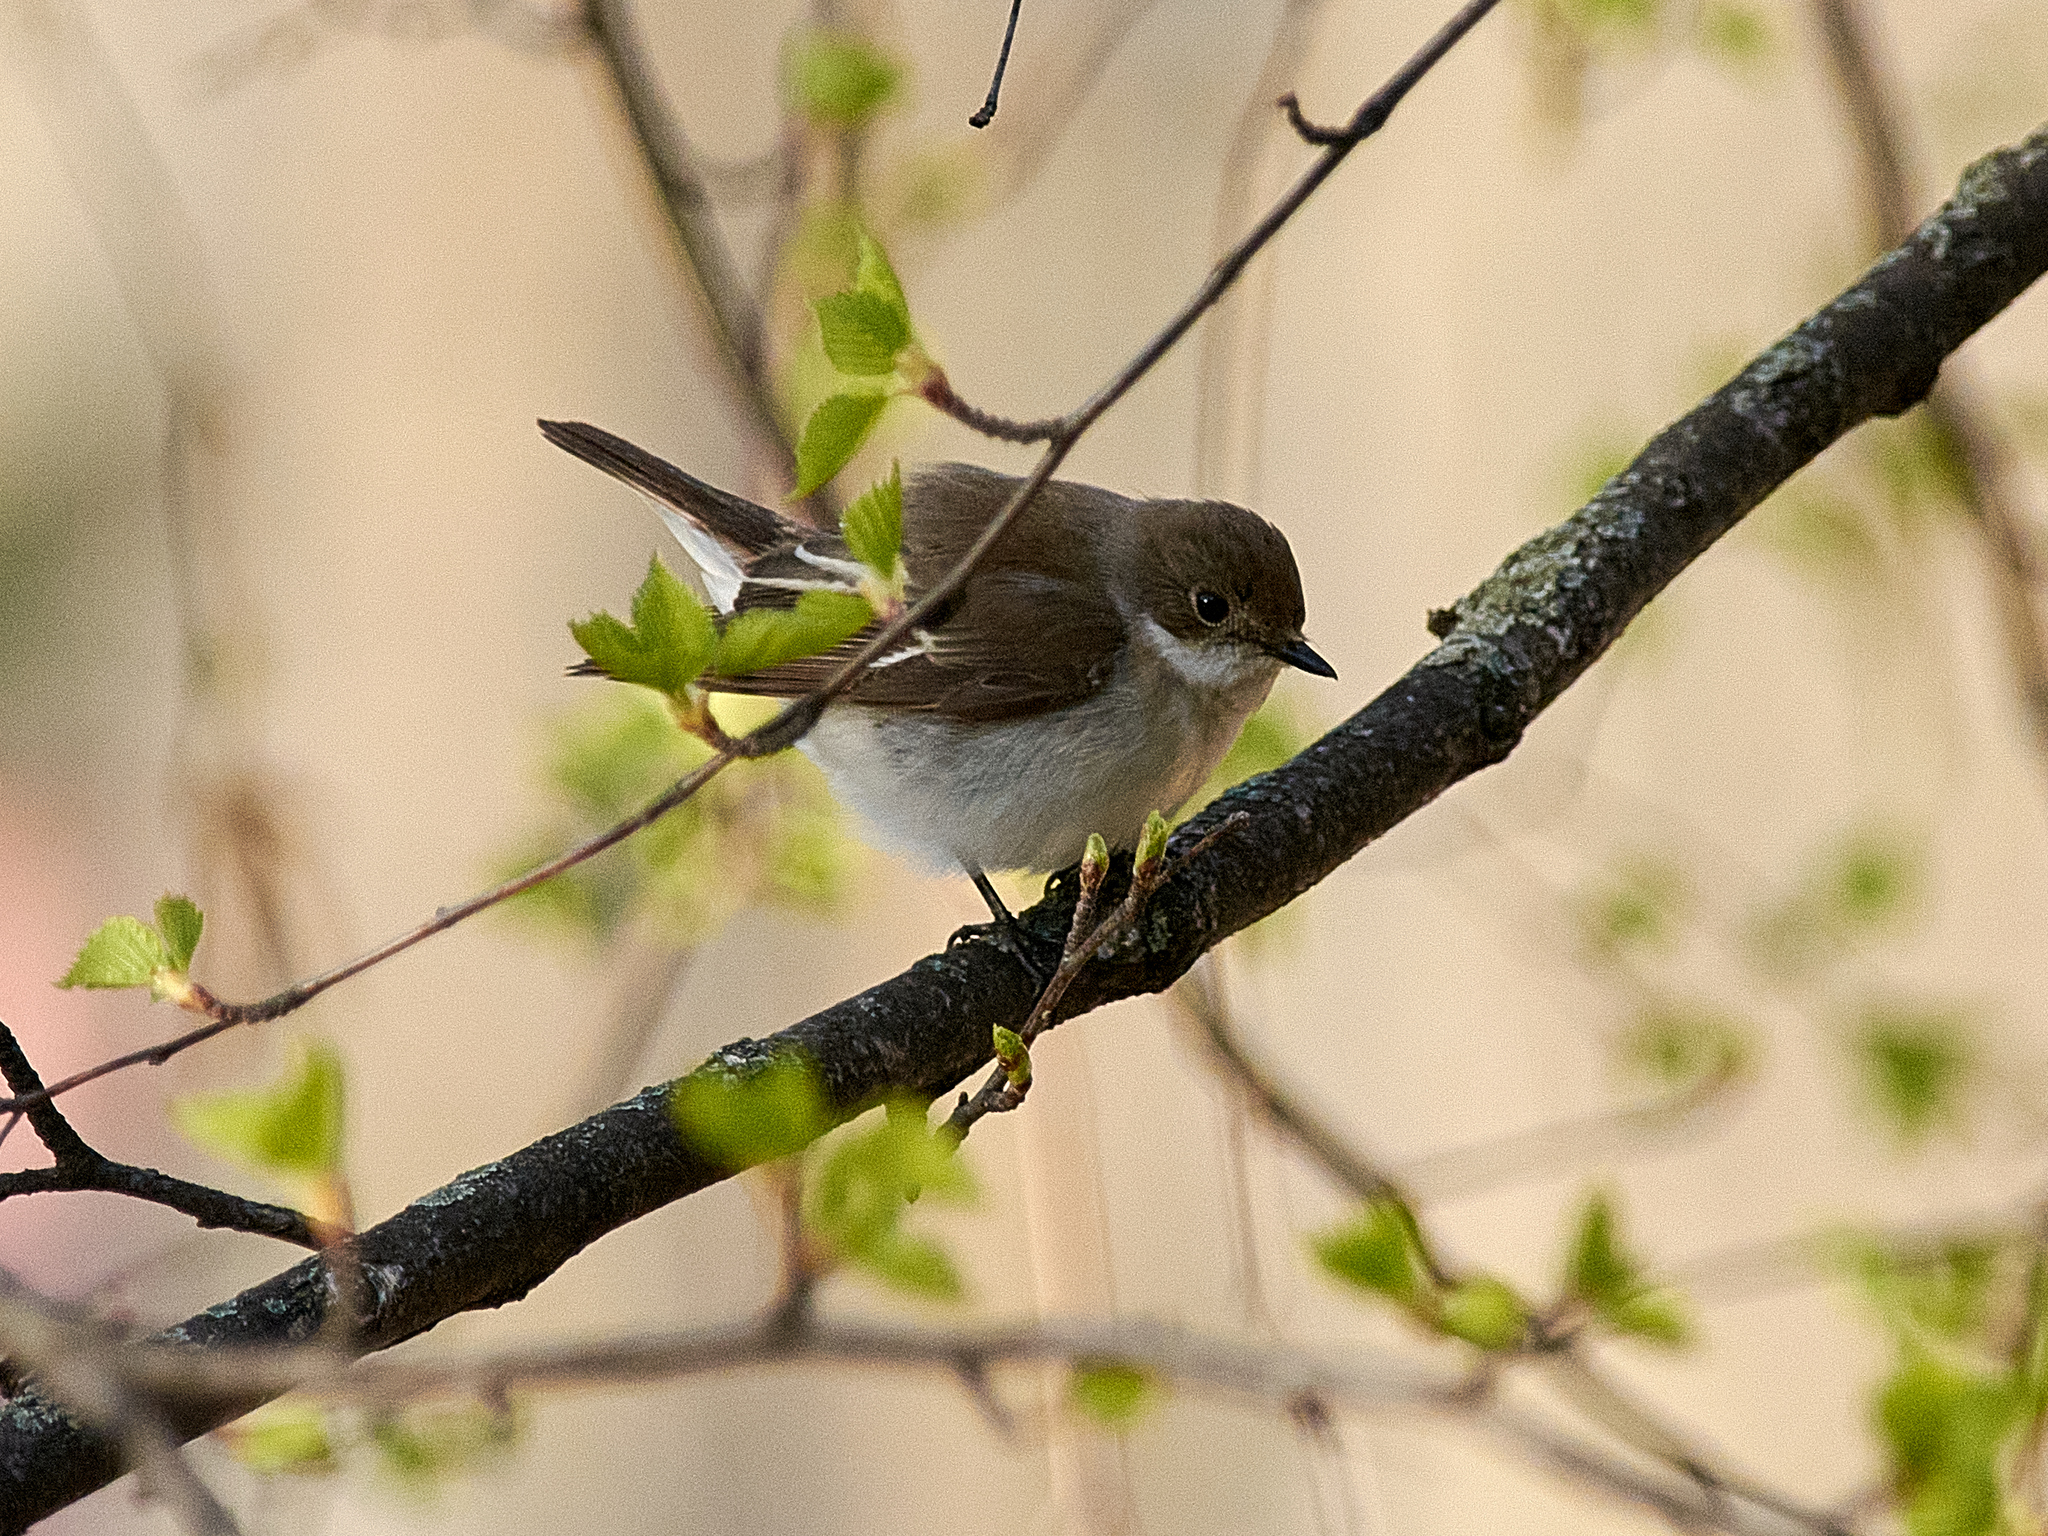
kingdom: Animalia
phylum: Chordata
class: Aves
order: Passeriformes
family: Muscicapidae
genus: Ficedula
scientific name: Ficedula hypoleuca
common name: European pied flycatcher
